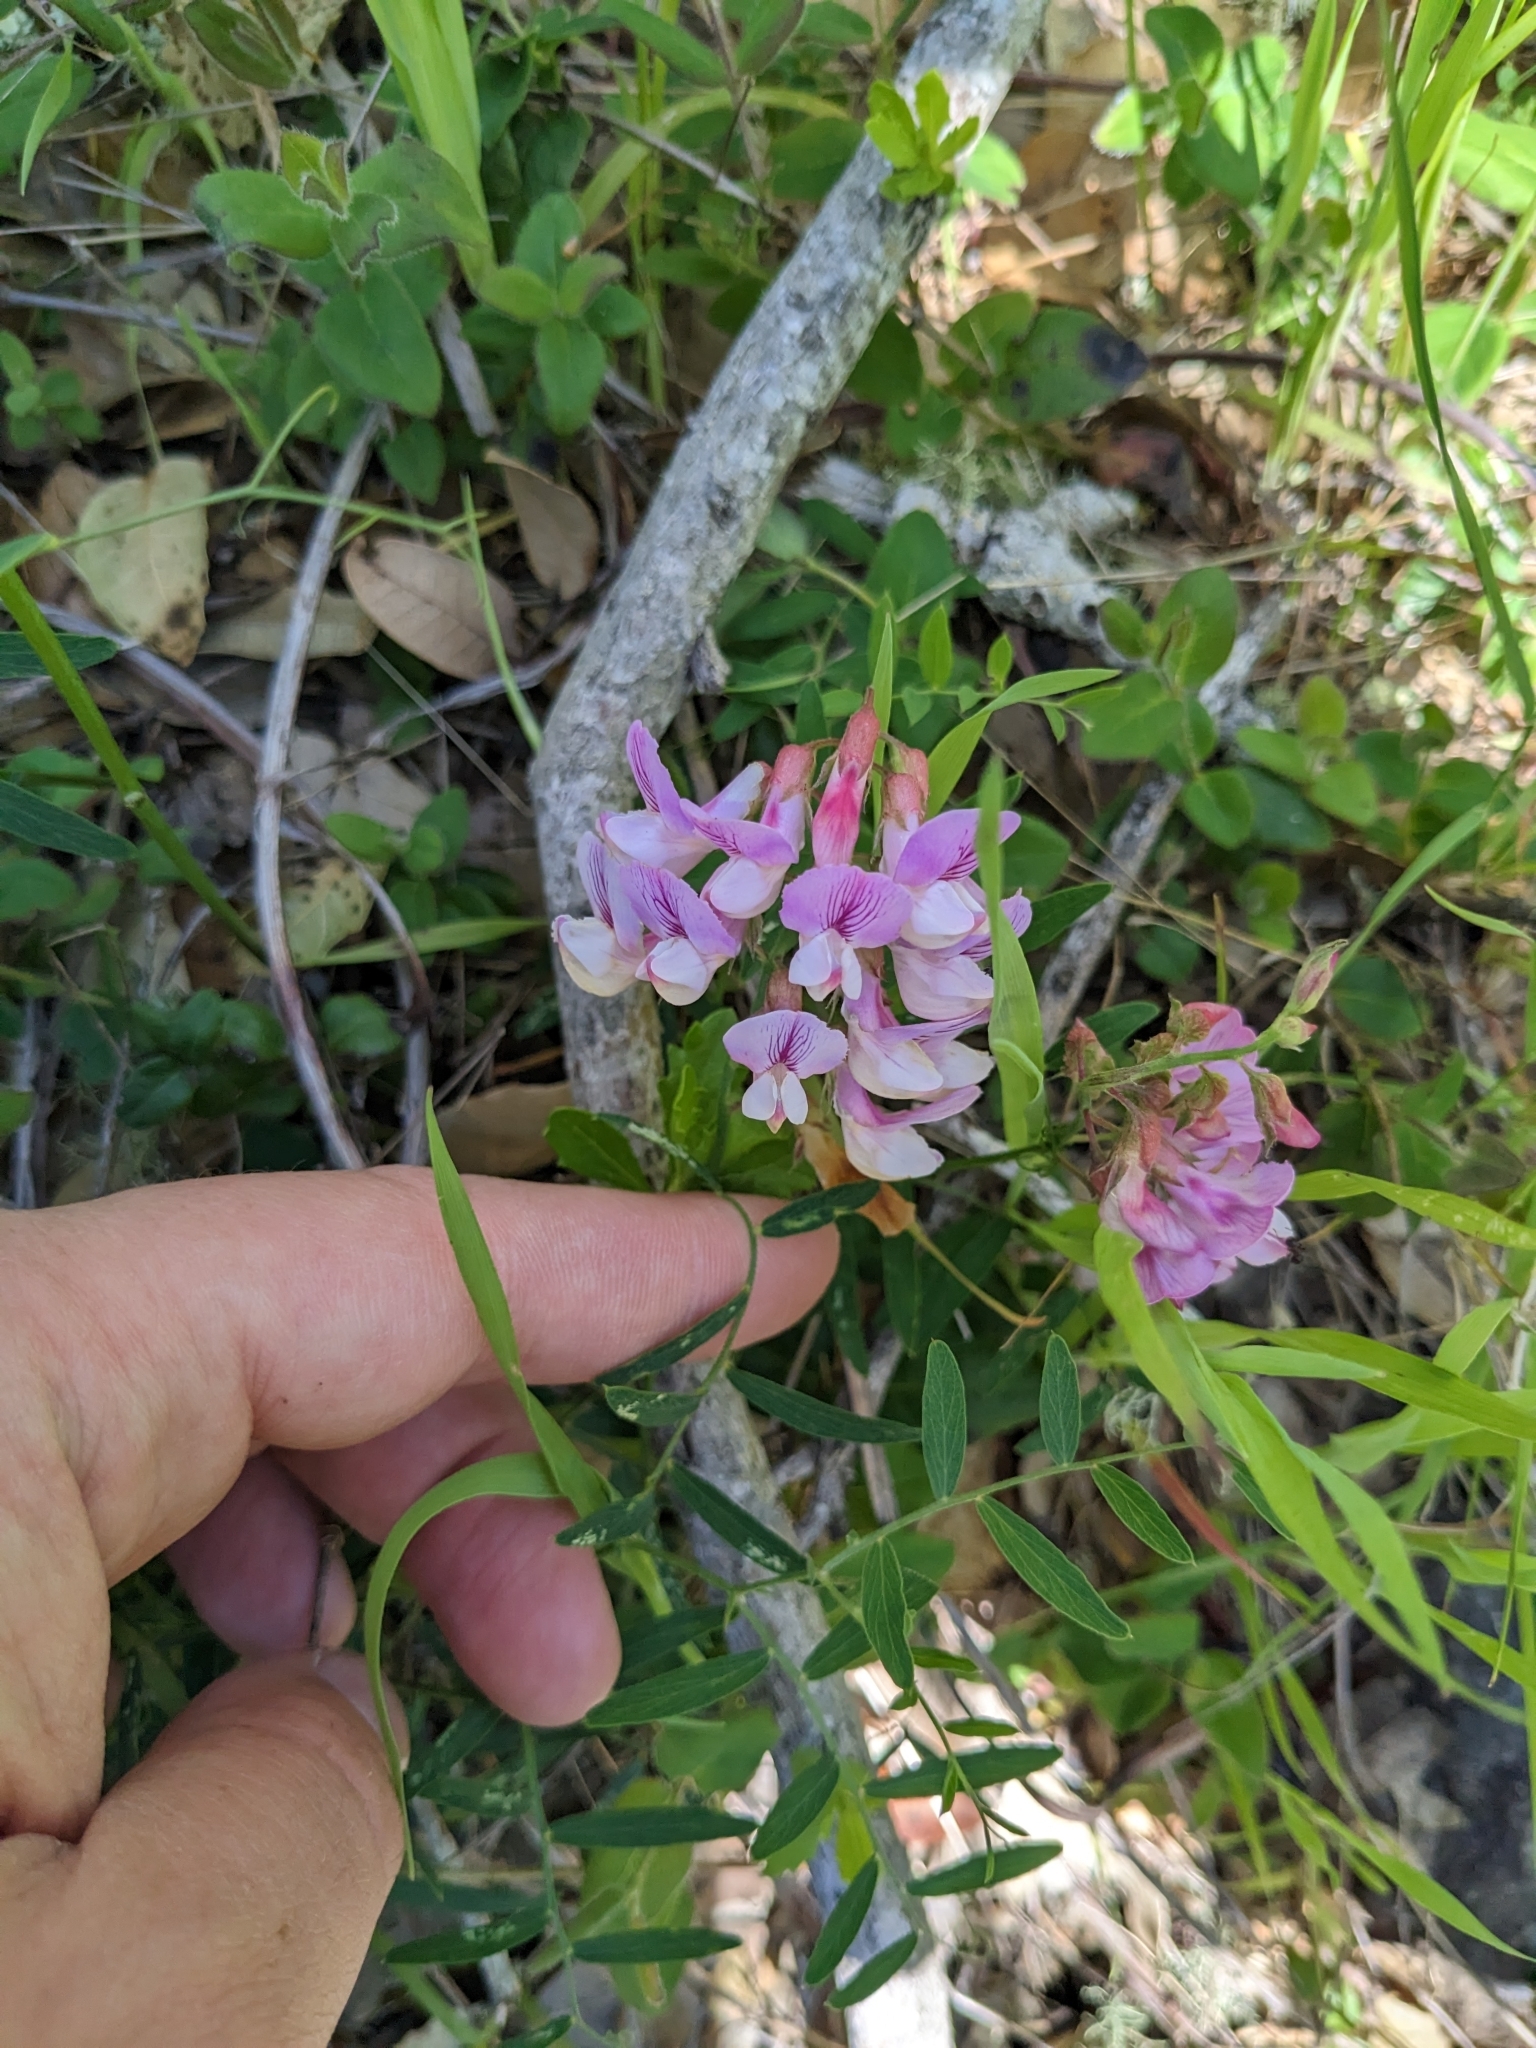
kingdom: Plantae
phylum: Tracheophyta
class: Magnoliopsida
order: Fabales
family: Fabaceae
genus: Lathyrus
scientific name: Lathyrus vestitus
